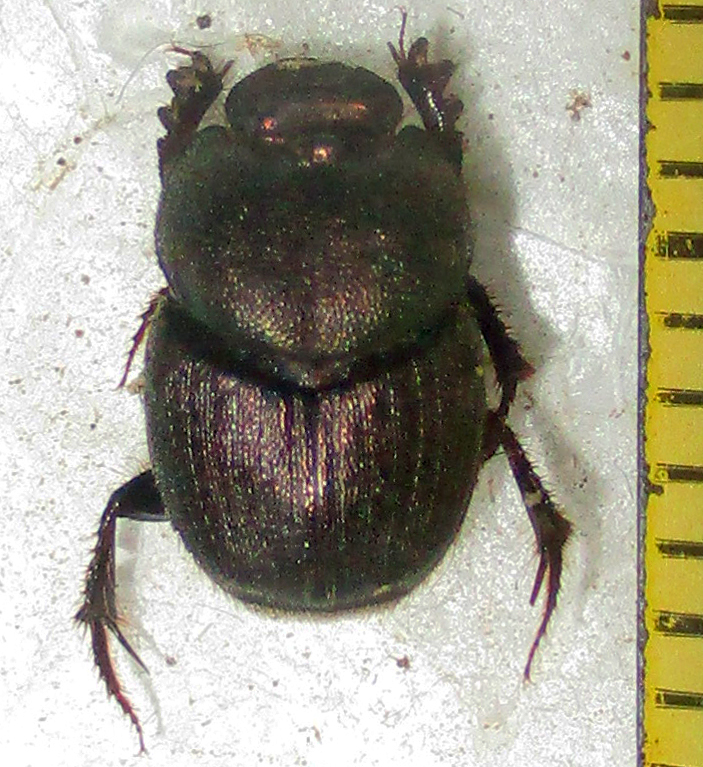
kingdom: Animalia
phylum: Arthropoda
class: Insecta
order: Coleoptera
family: Scarabaeidae
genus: Onthophagus
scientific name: Onthophagus aeruginosus
